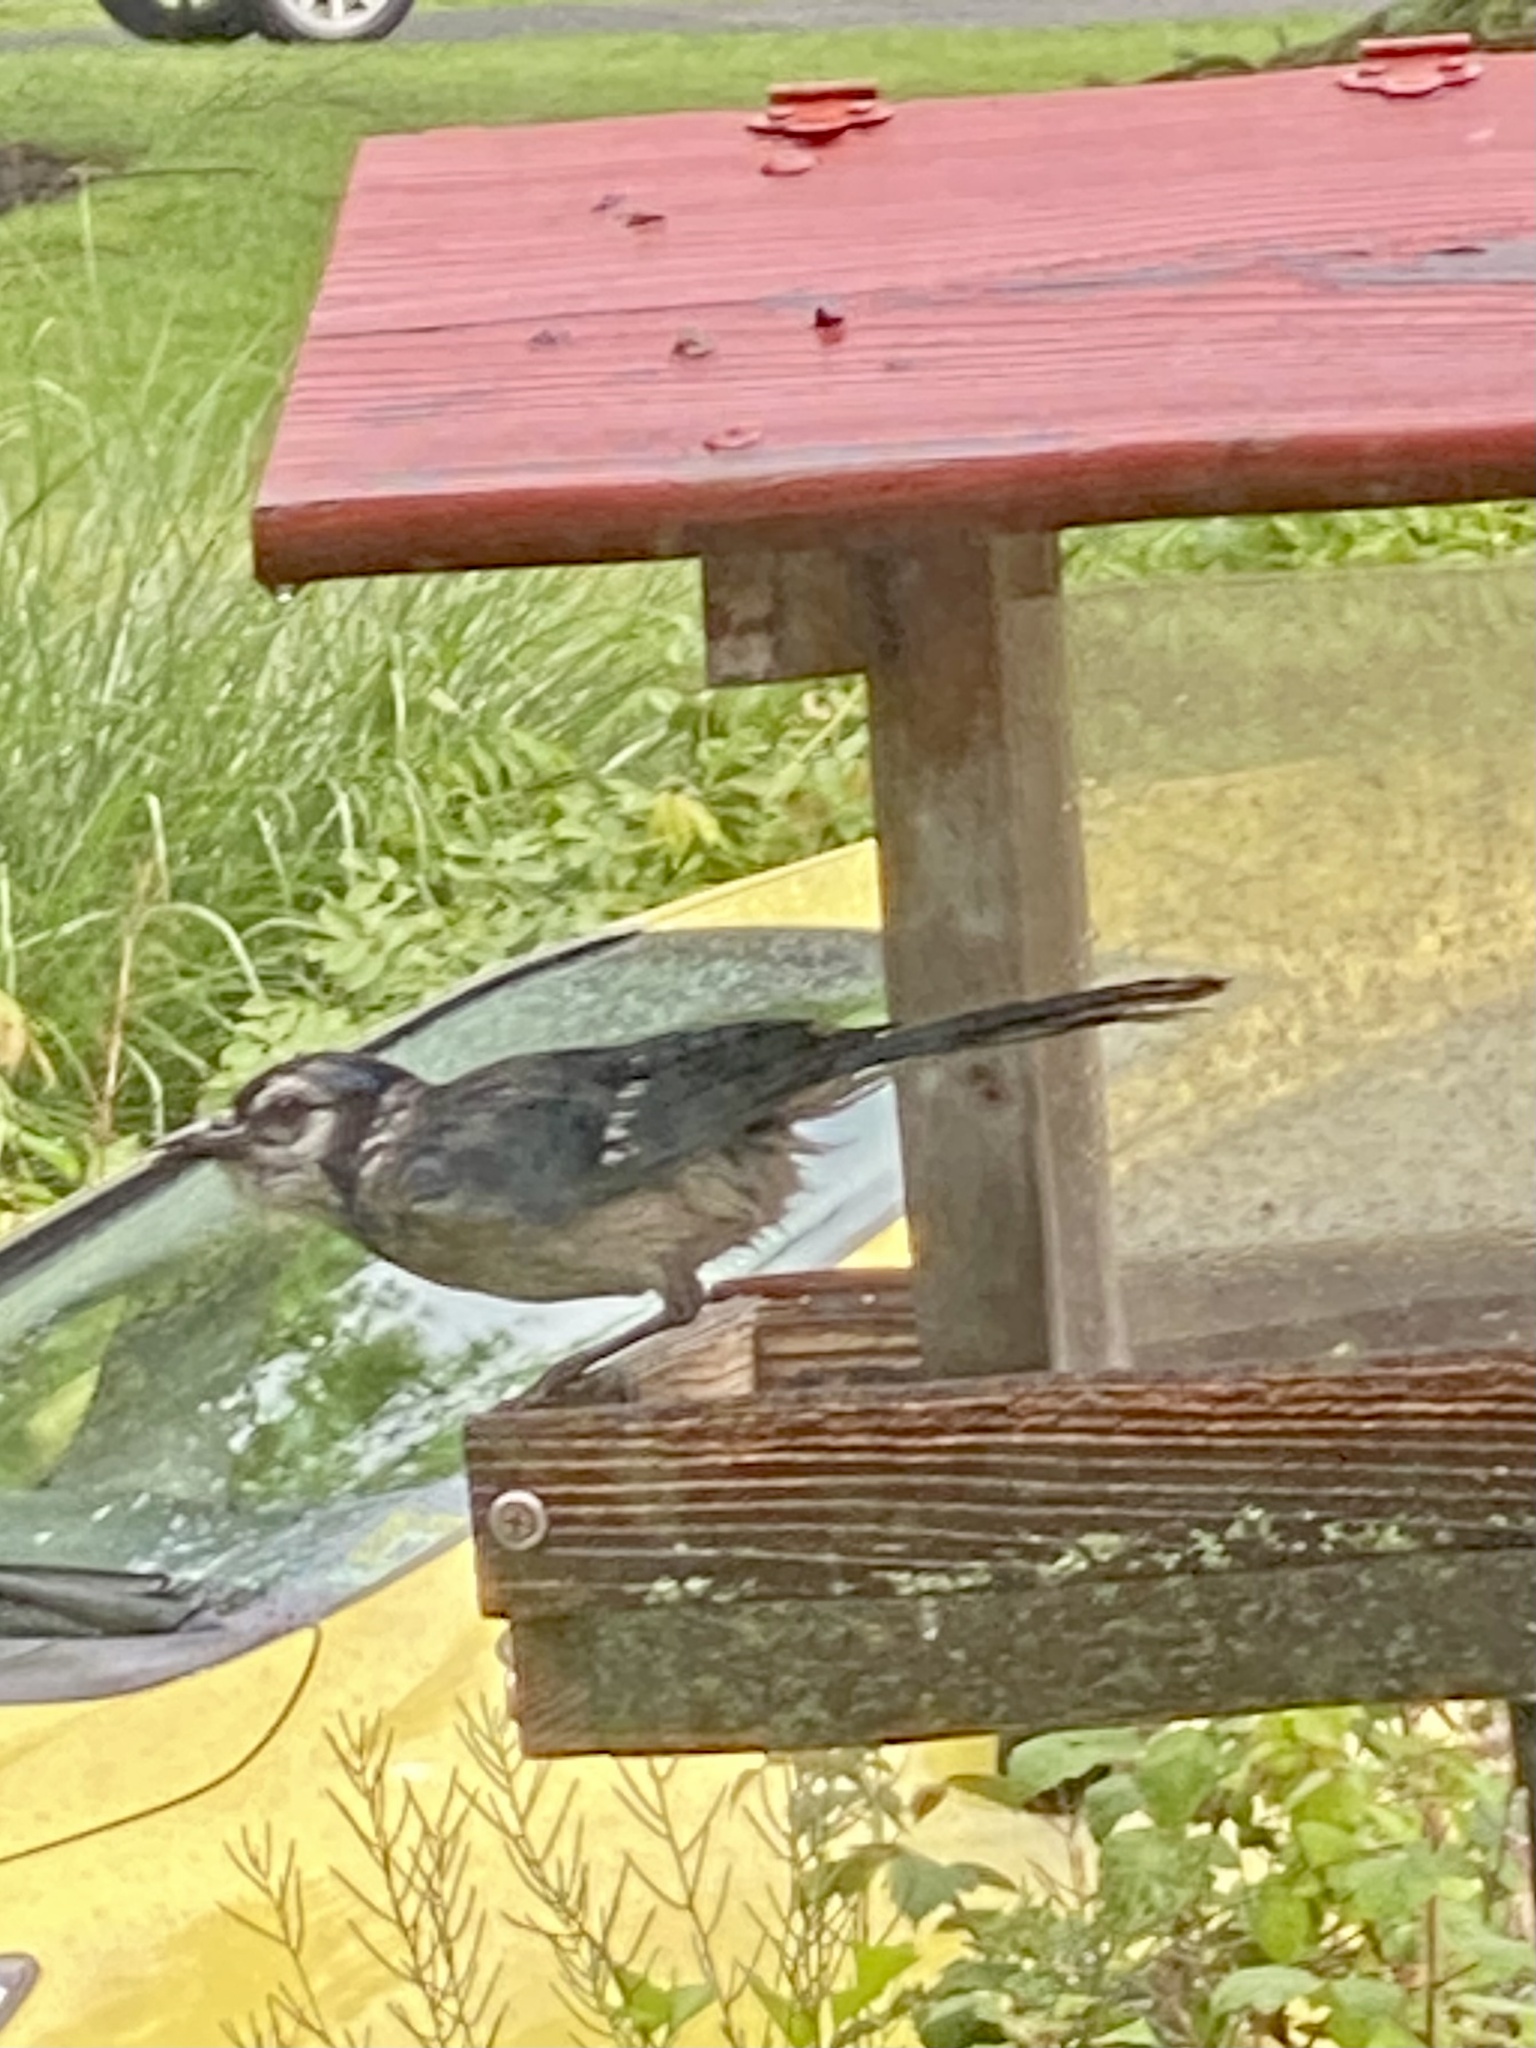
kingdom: Animalia
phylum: Chordata
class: Aves
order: Passeriformes
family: Corvidae
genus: Cyanocitta
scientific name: Cyanocitta cristata
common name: Blue jay
